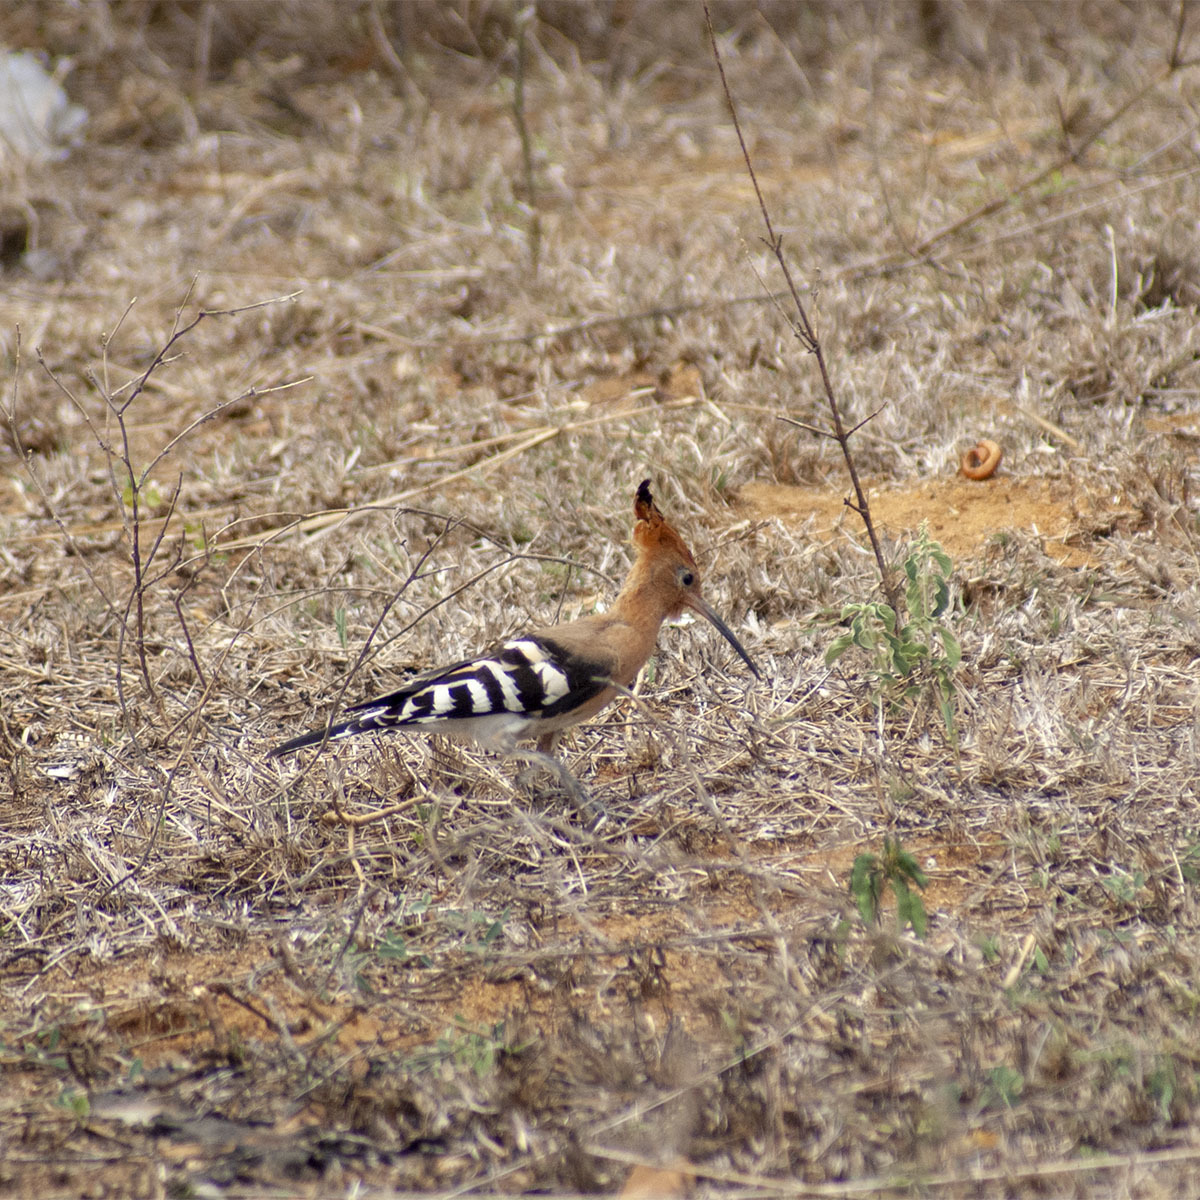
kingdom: Animalia
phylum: Chordata
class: Aves
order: Bucerotiformes
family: Upupidae
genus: Upupa
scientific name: Upupa epops
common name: Eurasian hoopoe
